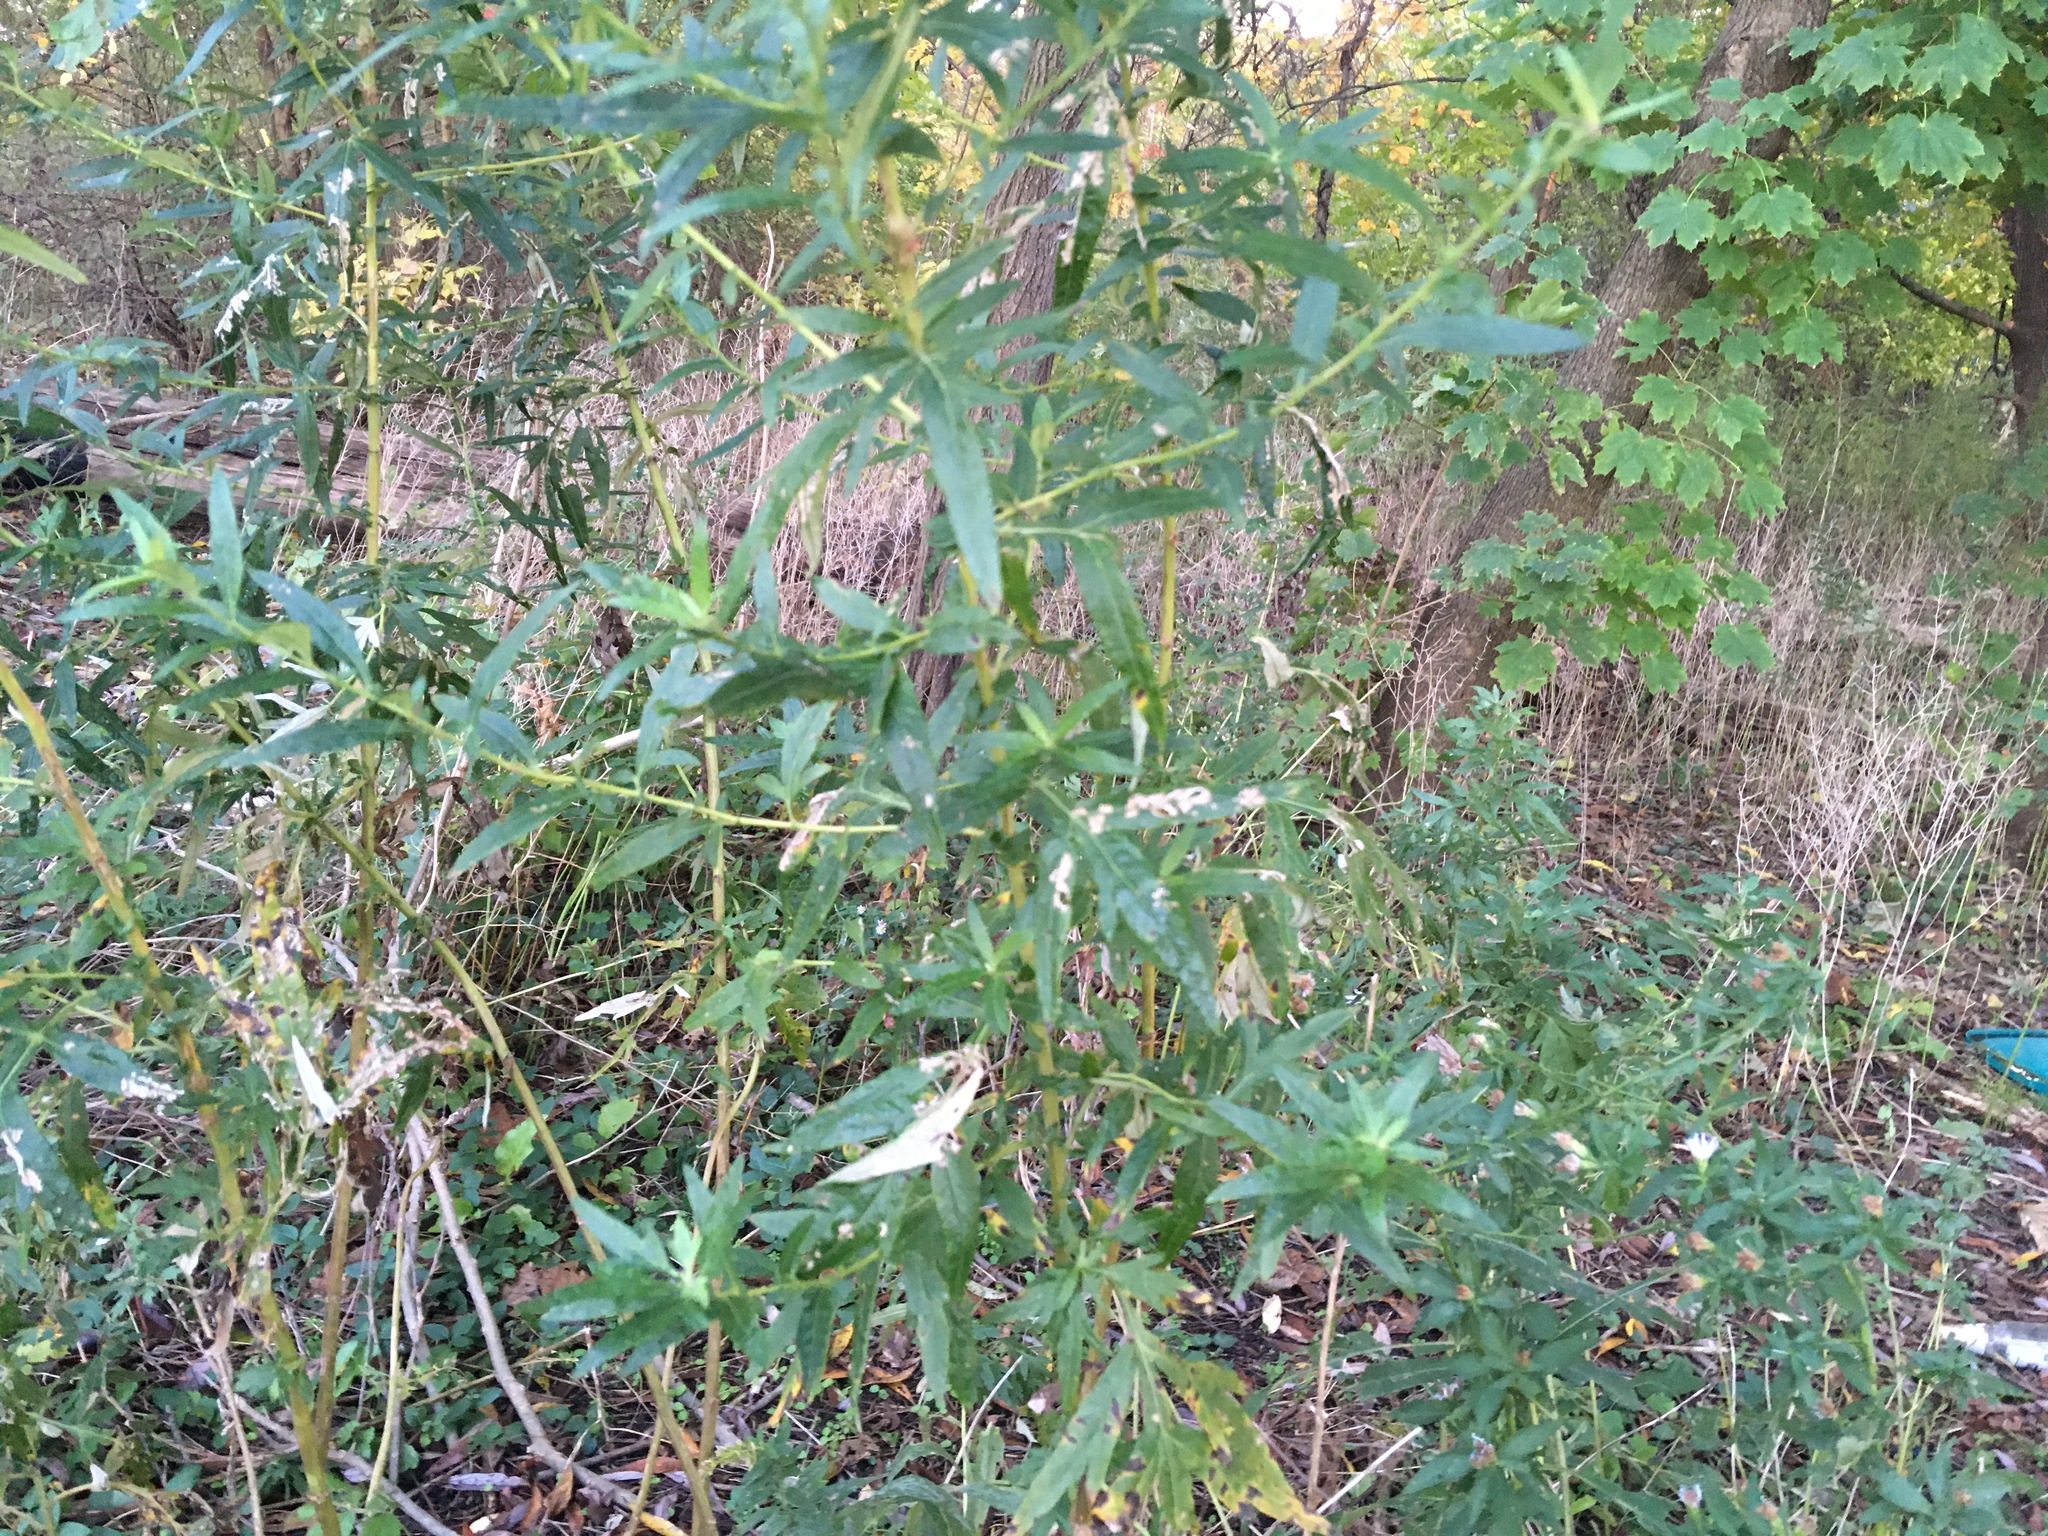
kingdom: Plantae
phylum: Tracheophyta
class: Magnoliopsida
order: Asterales
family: Asteraceae
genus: Artemisia
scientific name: Artemisia vulgaris
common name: Mugwort
